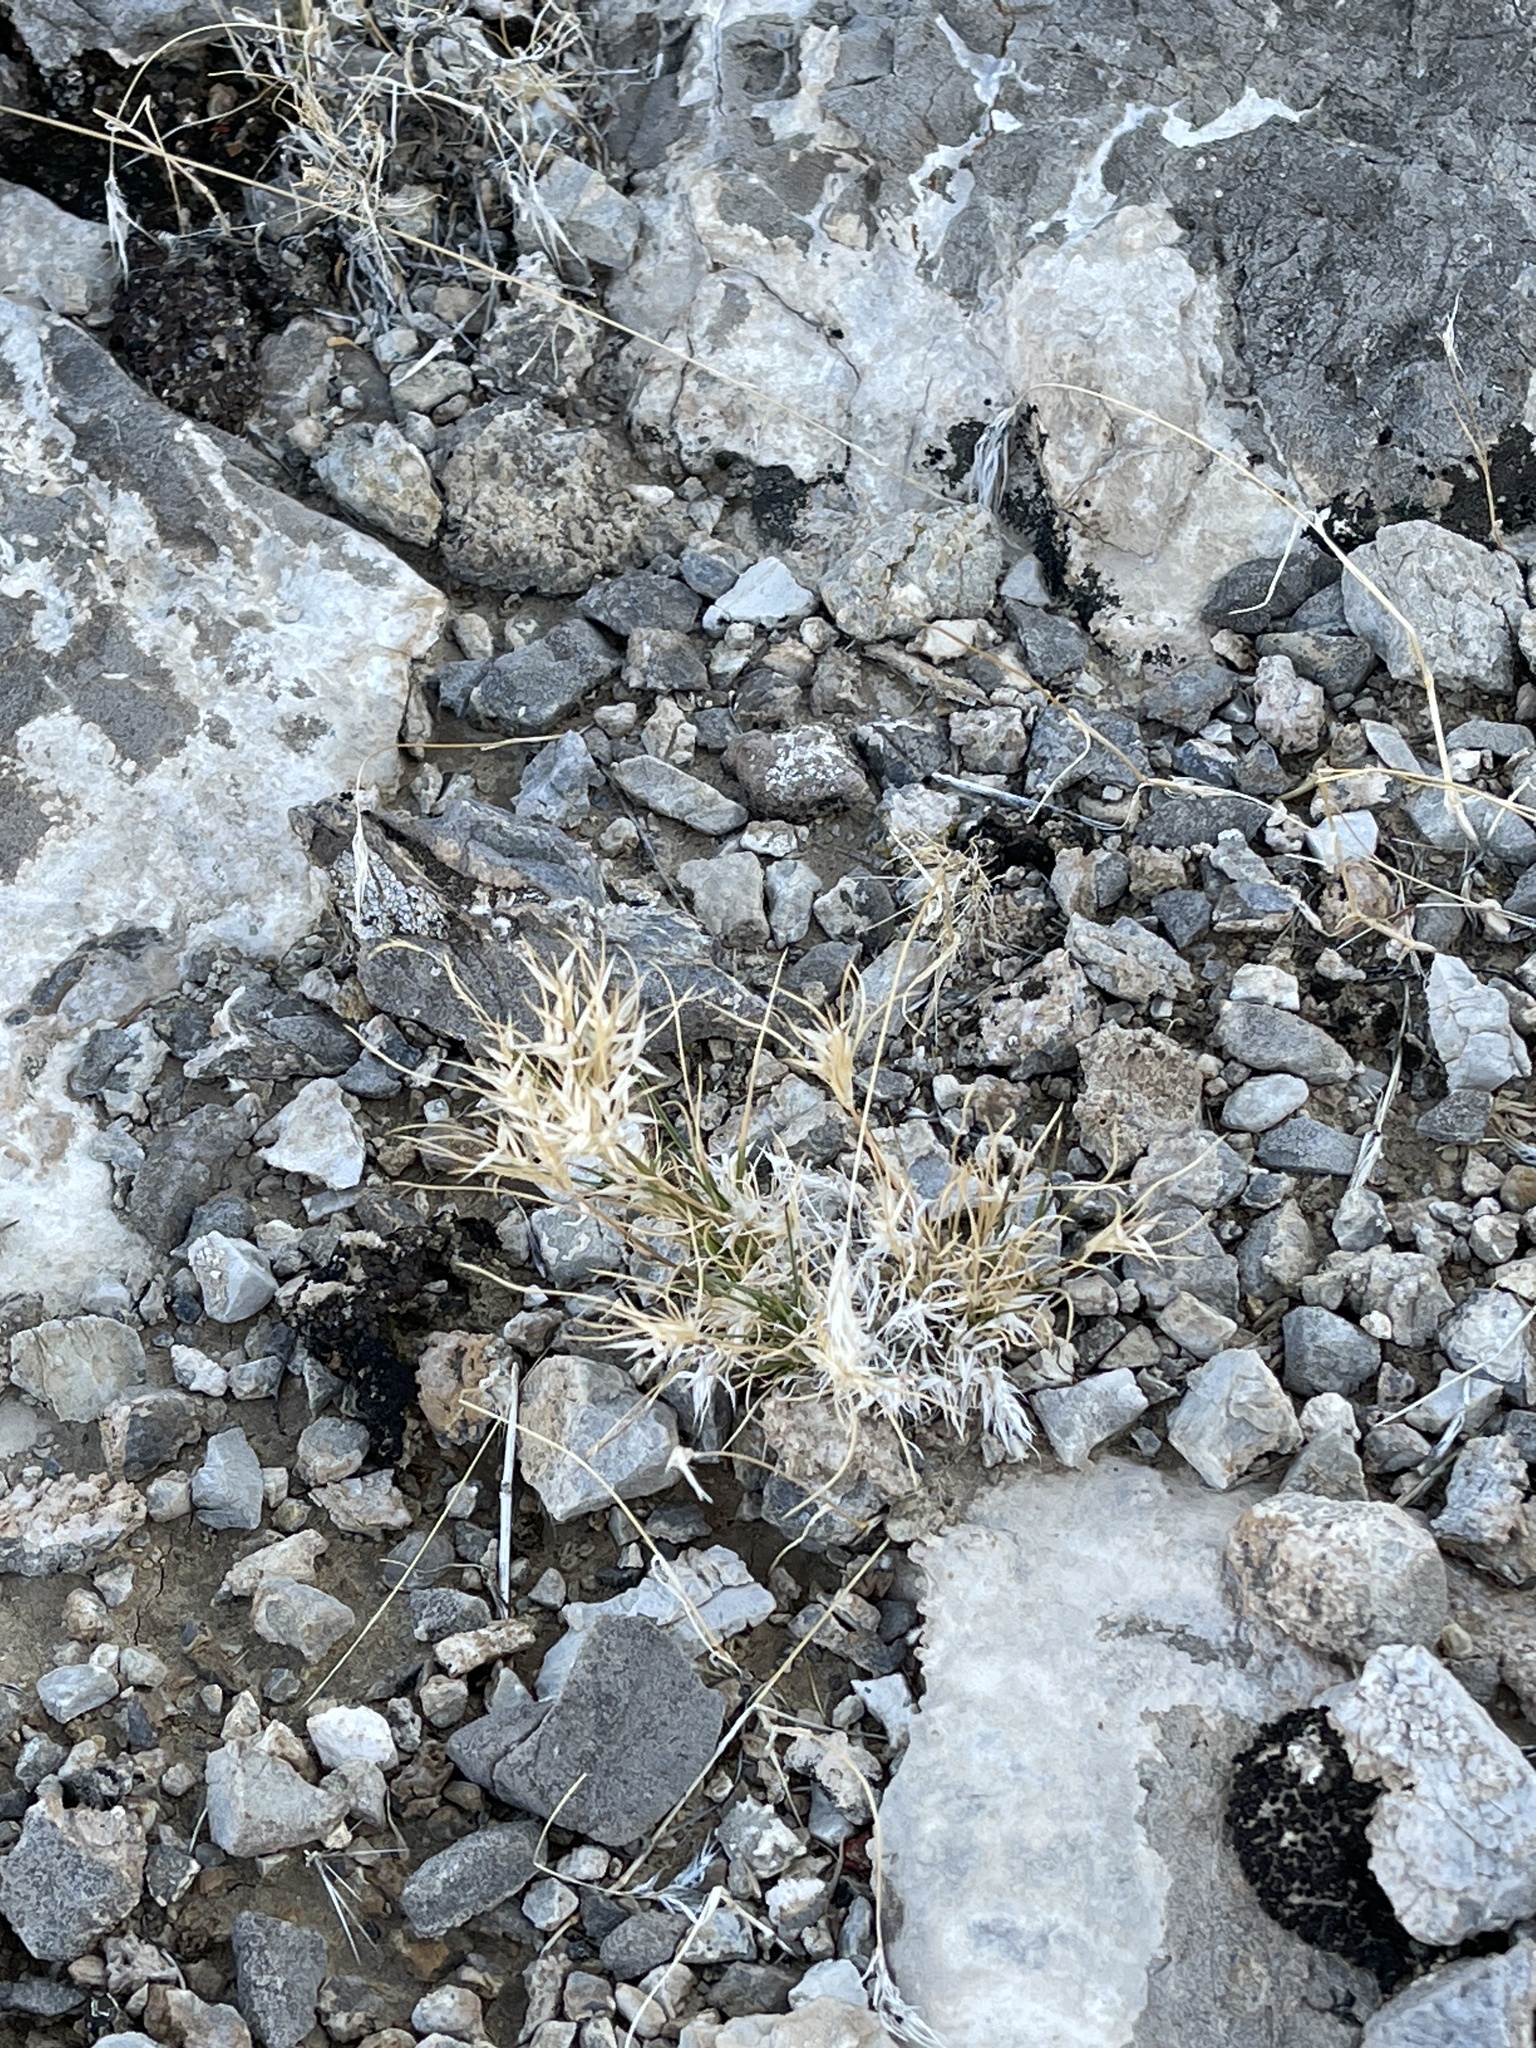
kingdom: Plantae
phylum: Tracheophyta
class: Liliopsida
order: Poales
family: Poaceae
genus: Dasyochloa
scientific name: Dasyochloa pulchella
